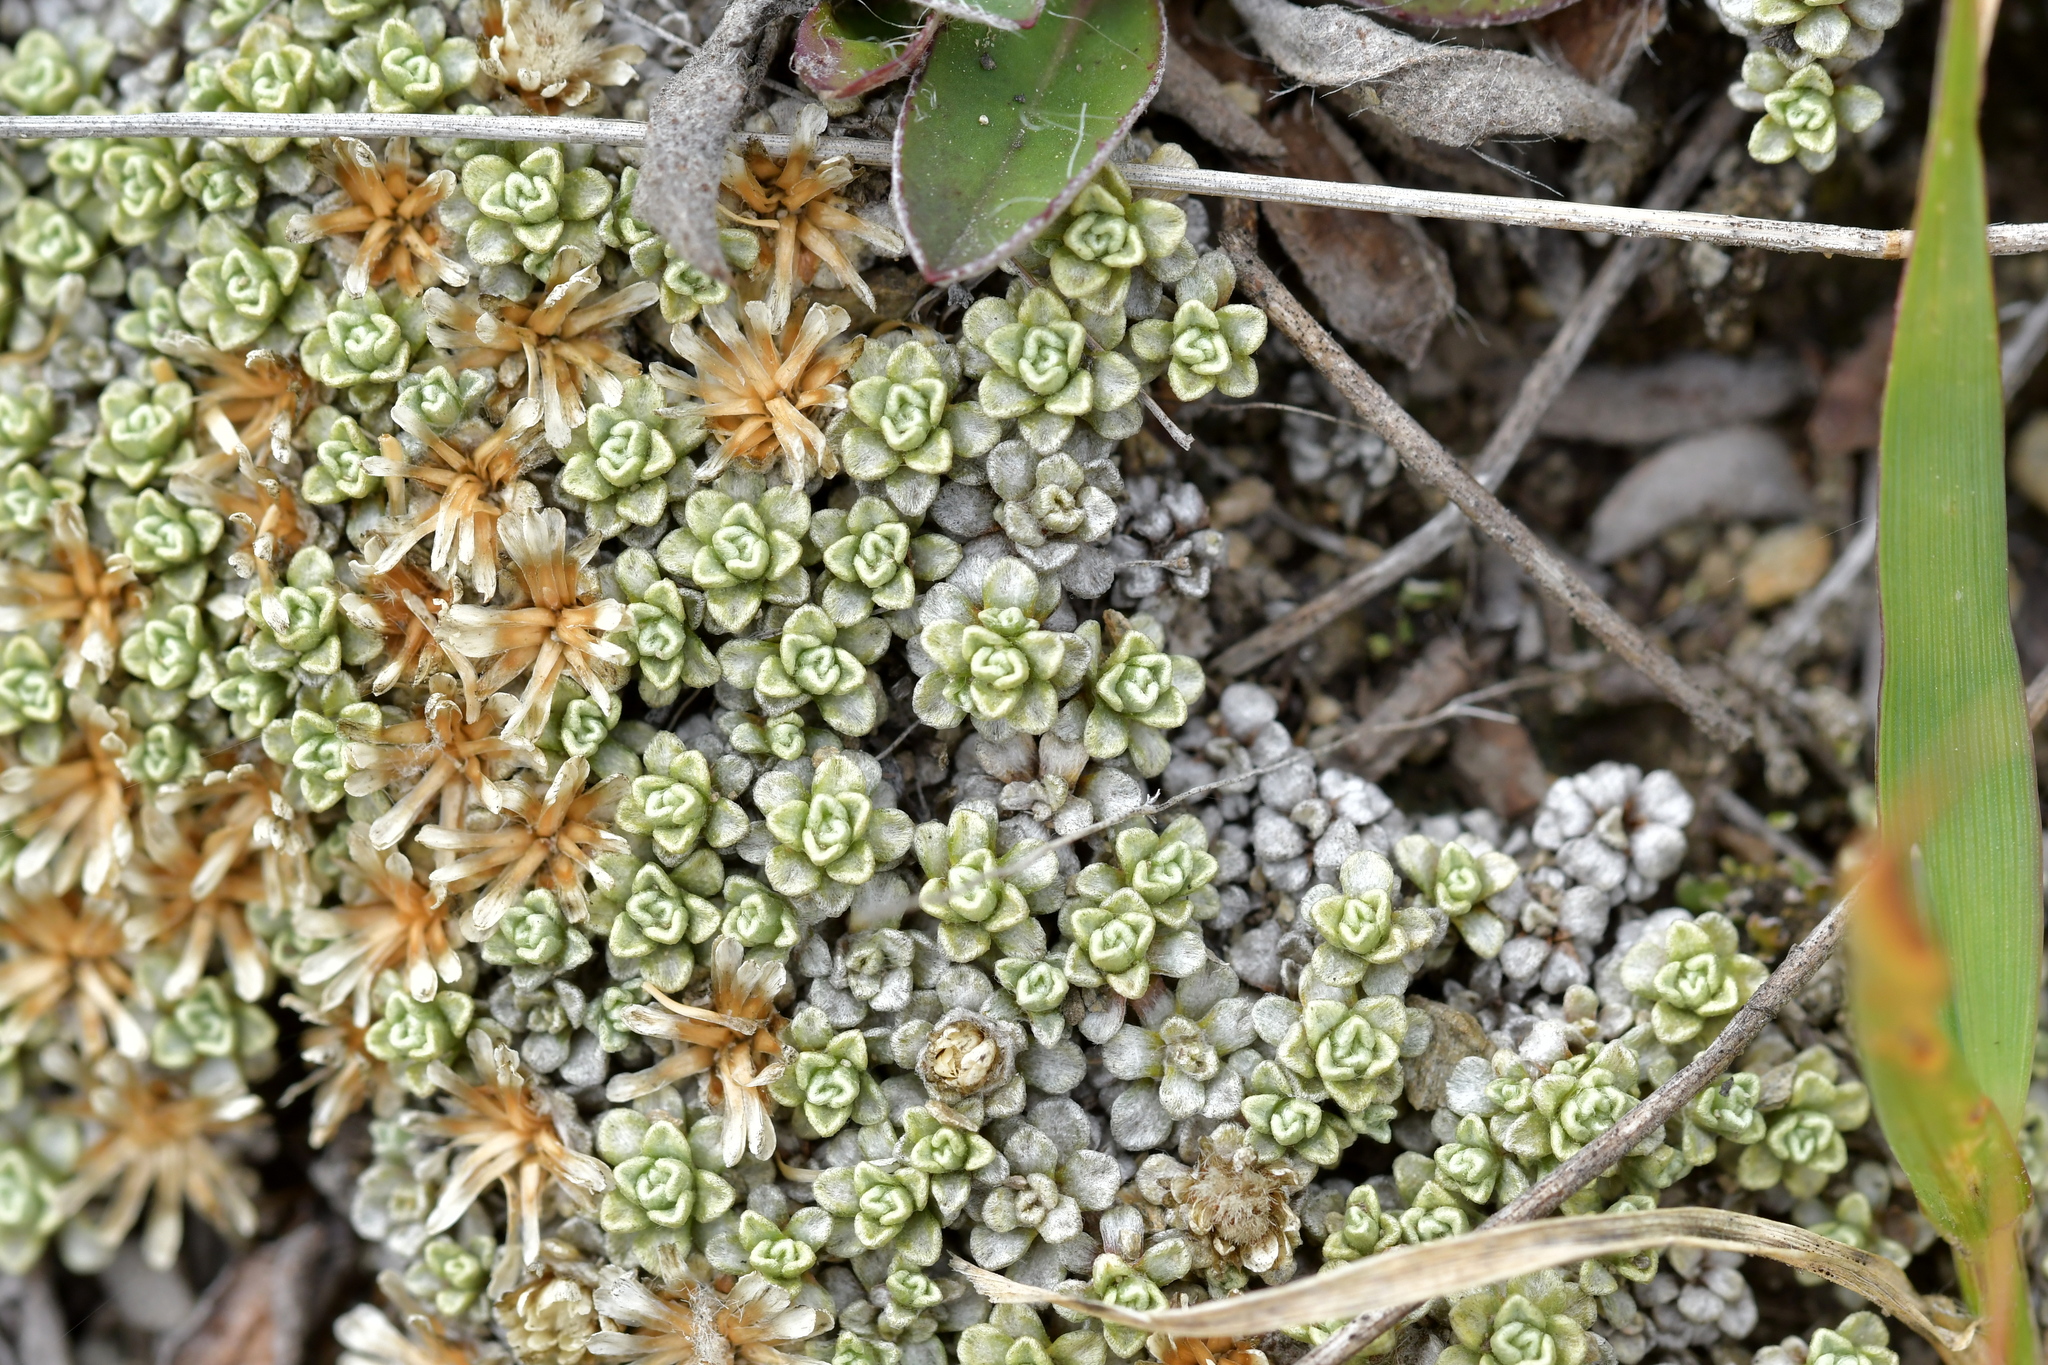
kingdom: Plantae
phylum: Tracheophyta
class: Magnoliopsida
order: Asterales
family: Asteraceae
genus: Raoulia
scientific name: Raoulia parkii
